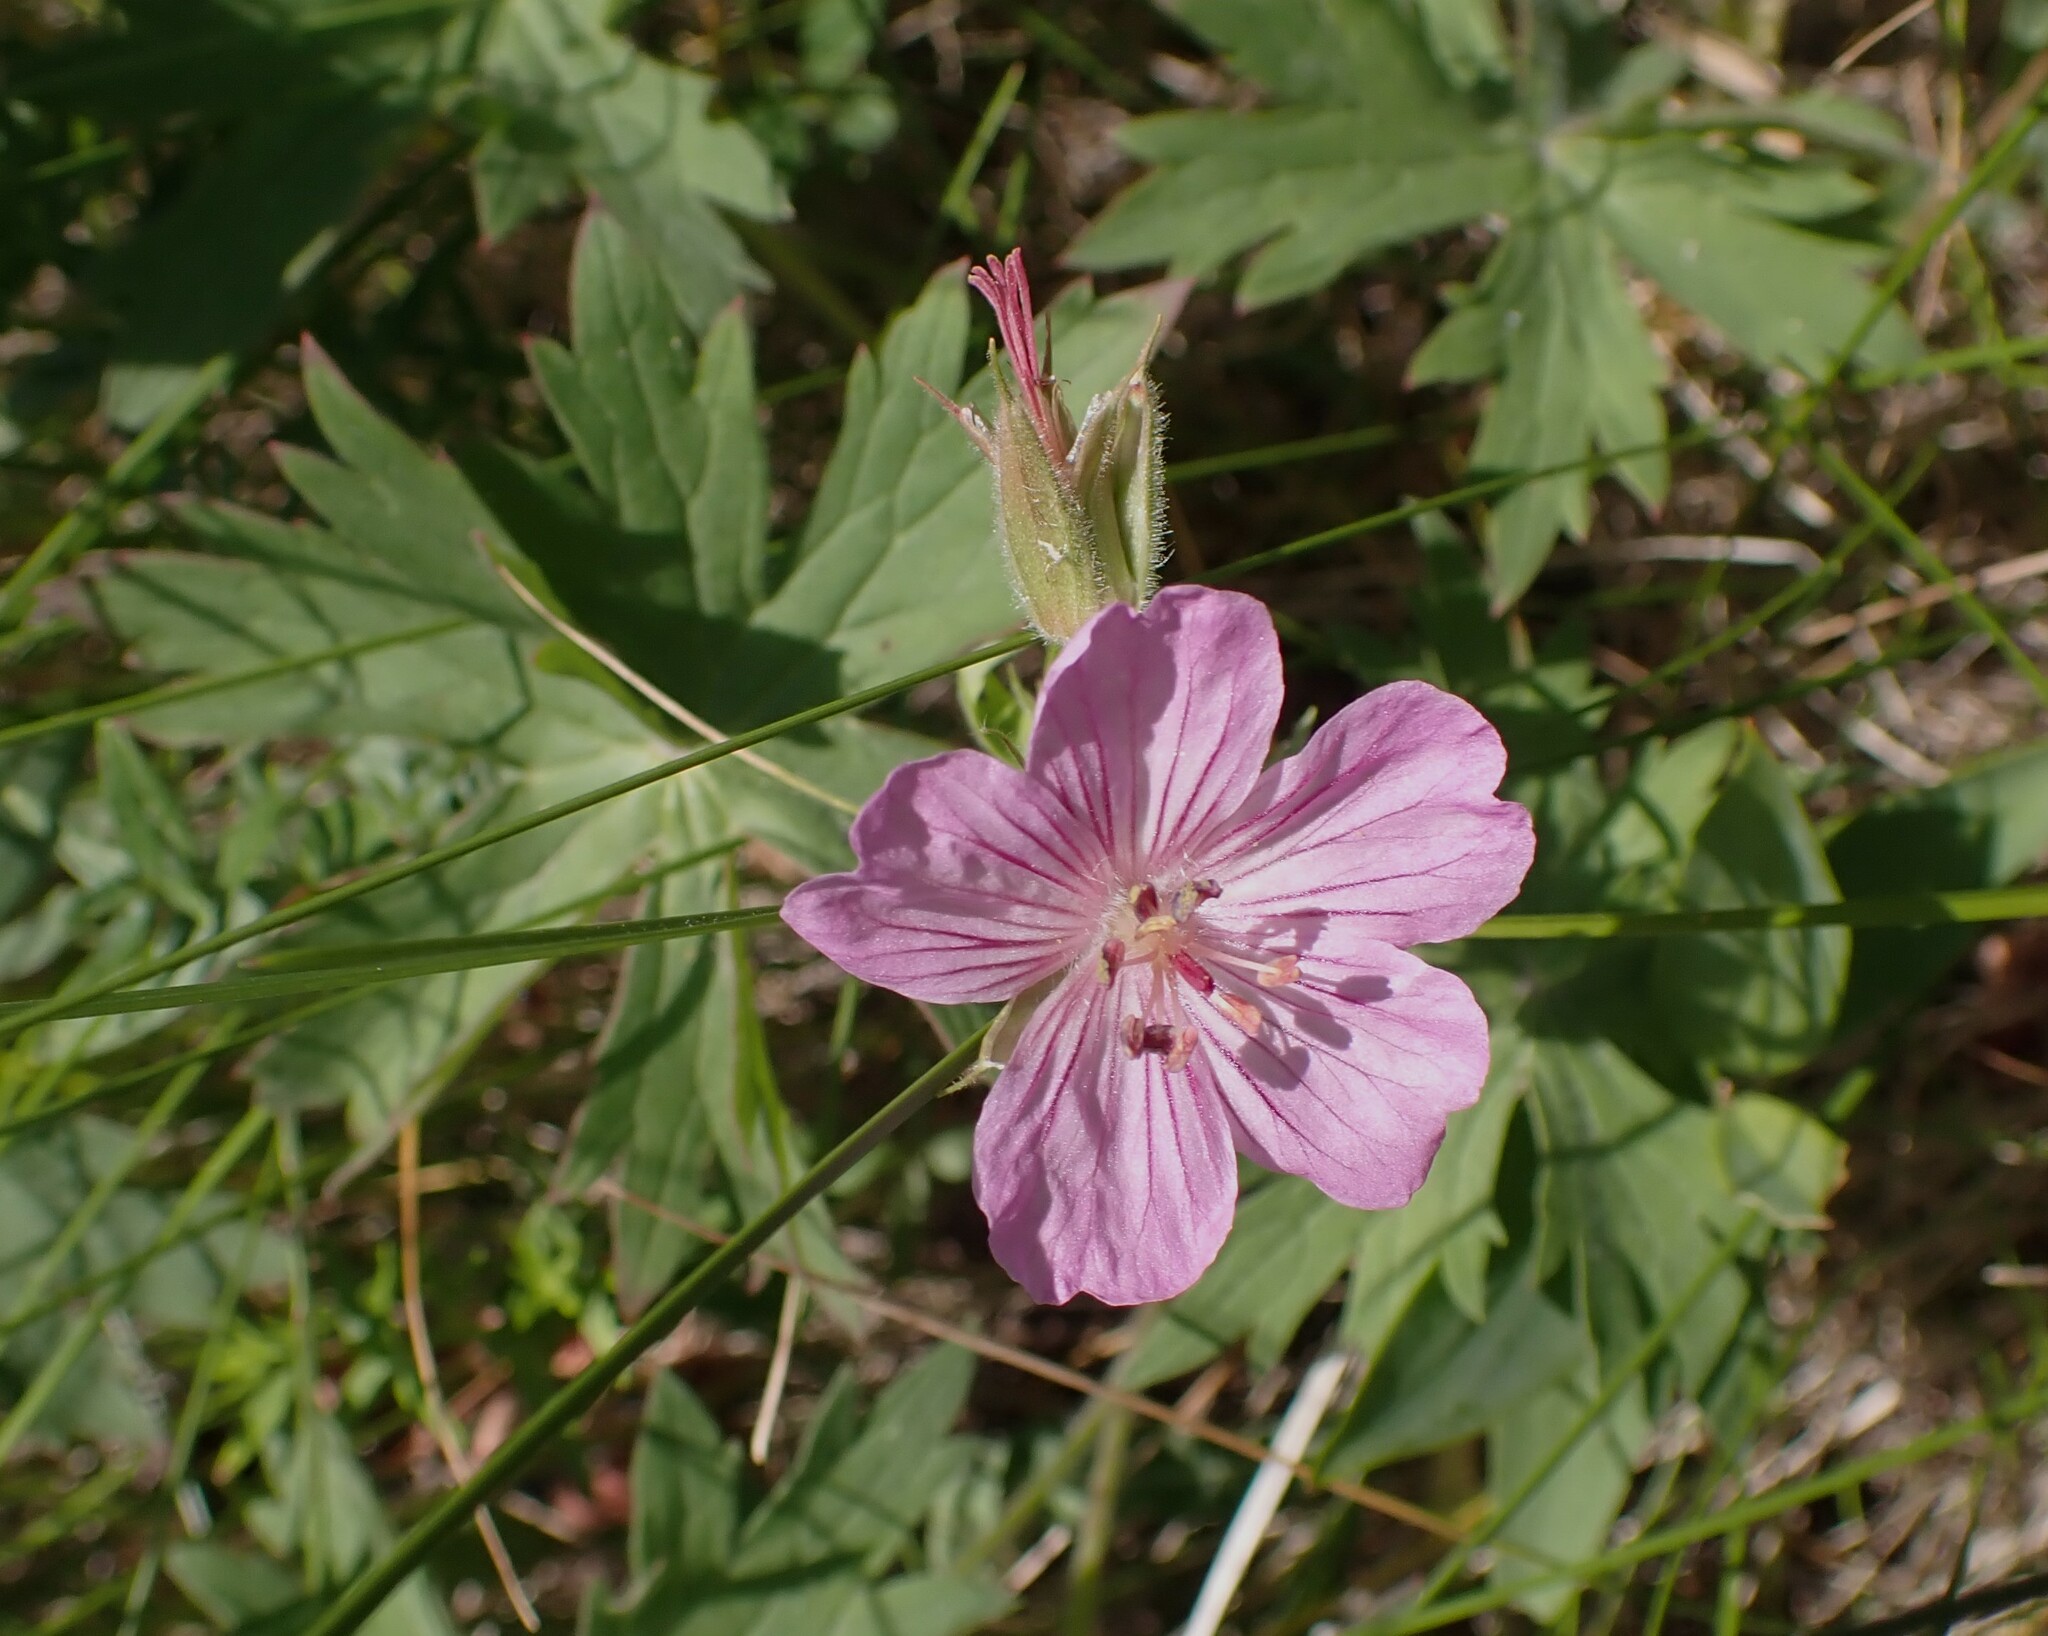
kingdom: Plantae
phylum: Tracheophyta
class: Magnoliopsida
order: Geraniales
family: Geraniaceae
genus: Geranium
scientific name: Geranium viscosissimum
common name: Purple geranium
